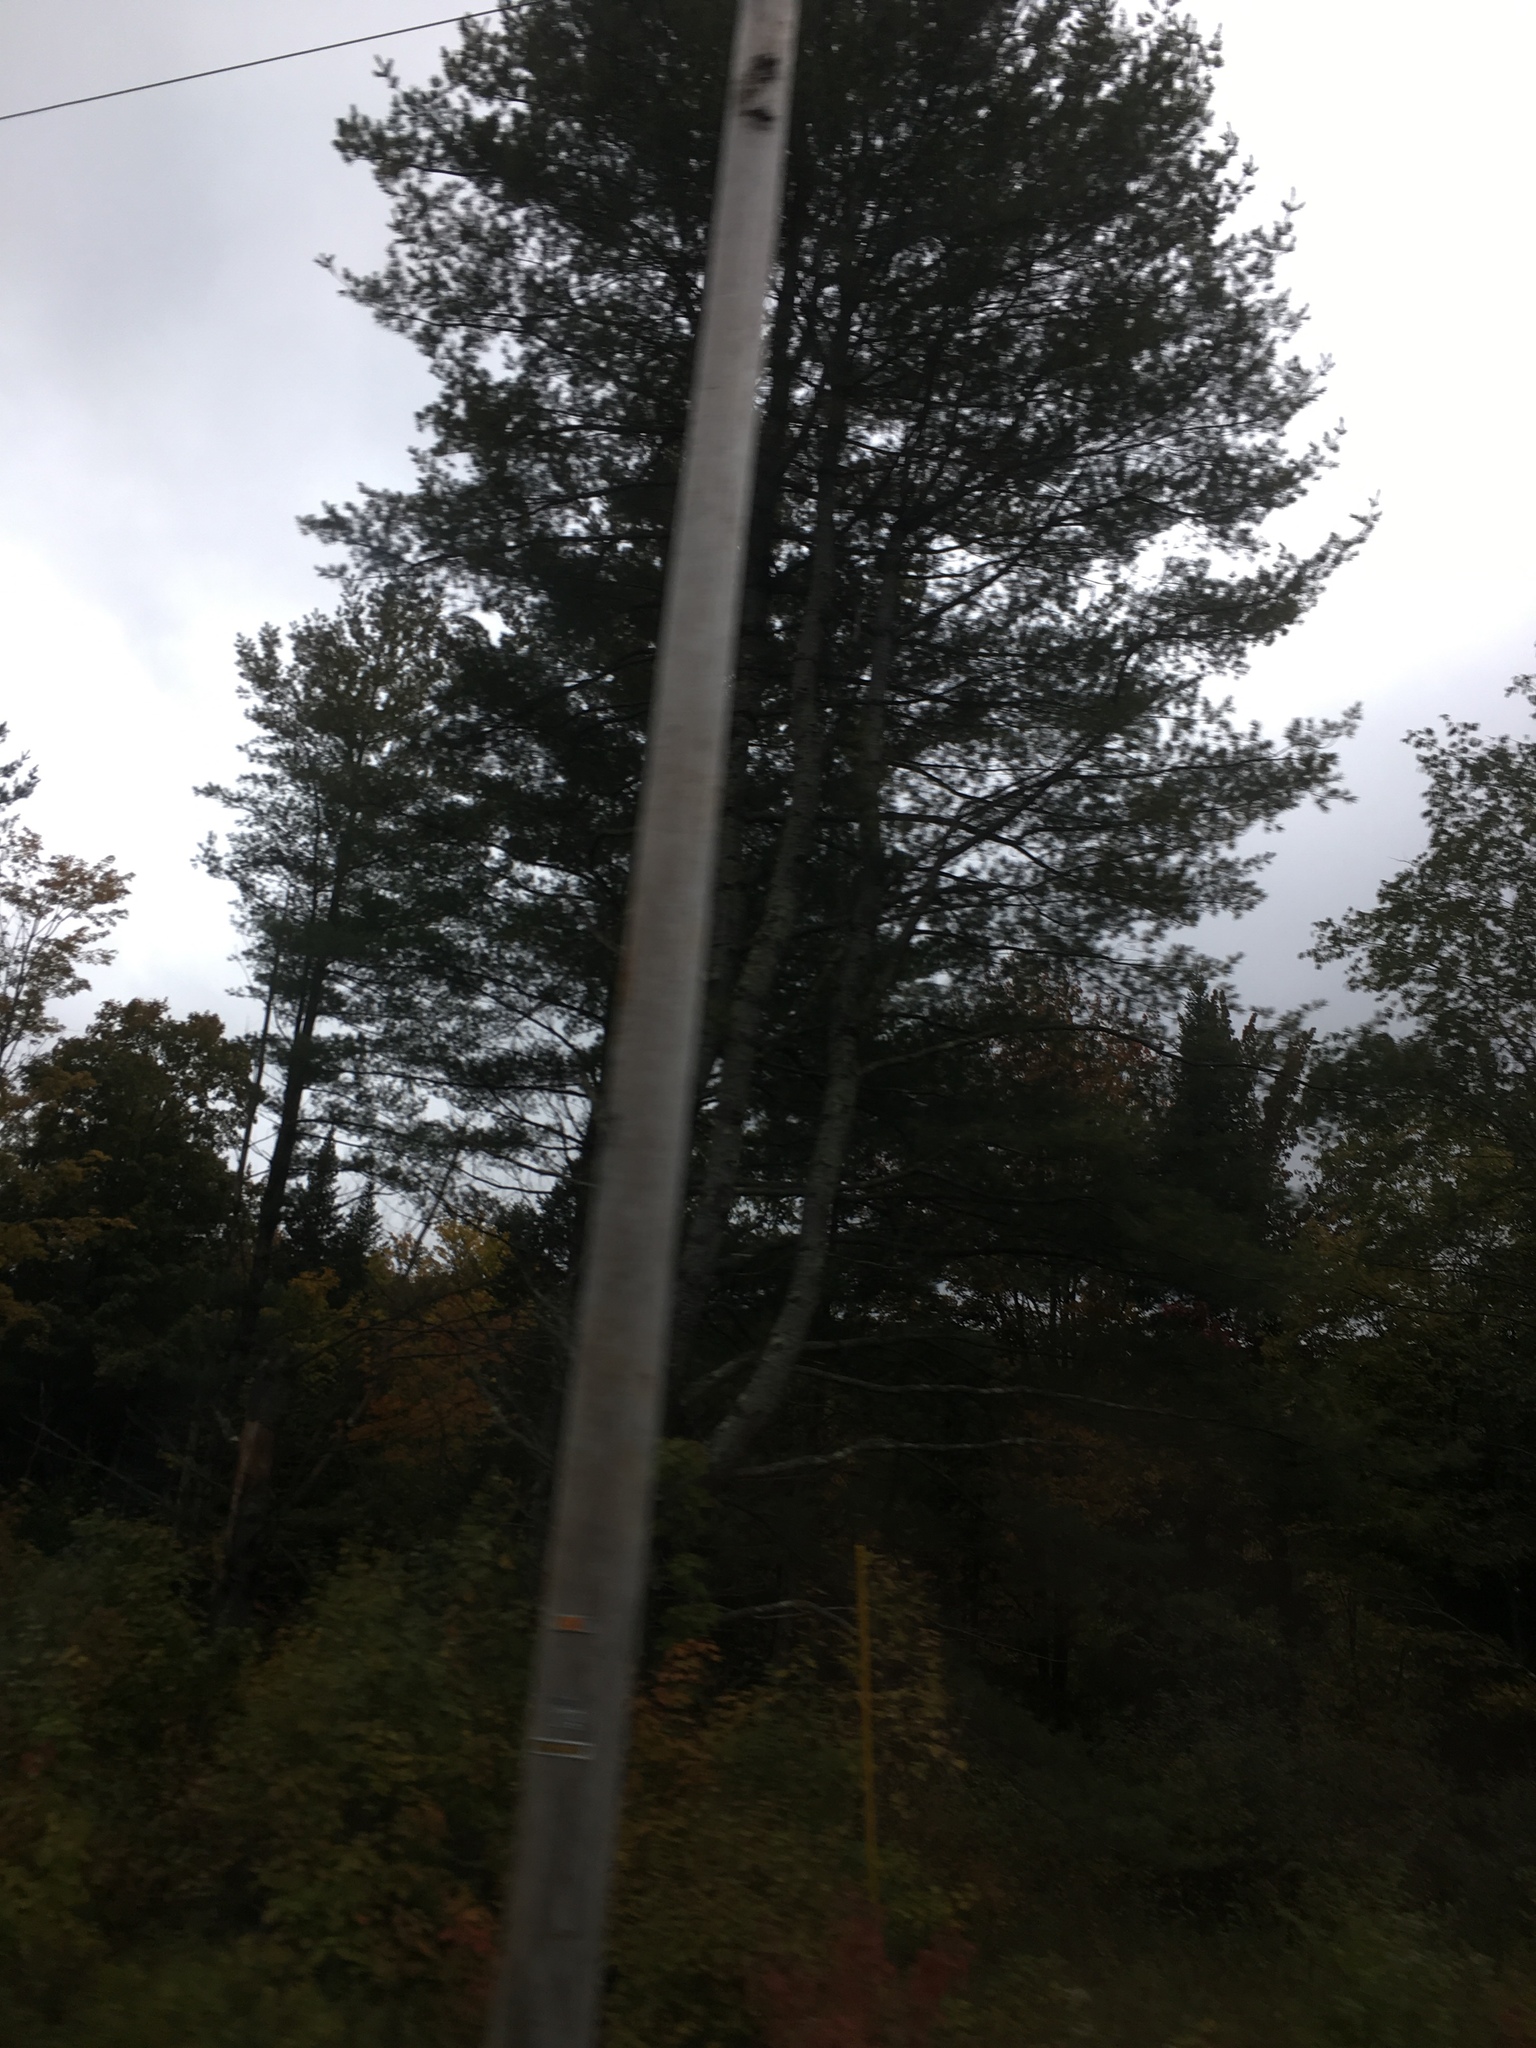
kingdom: Plantae
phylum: Tracheophyta
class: Pinopsida
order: Pinales
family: Pinaceae
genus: Pinus
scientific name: Pinus strobus
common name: Weymouth pine
